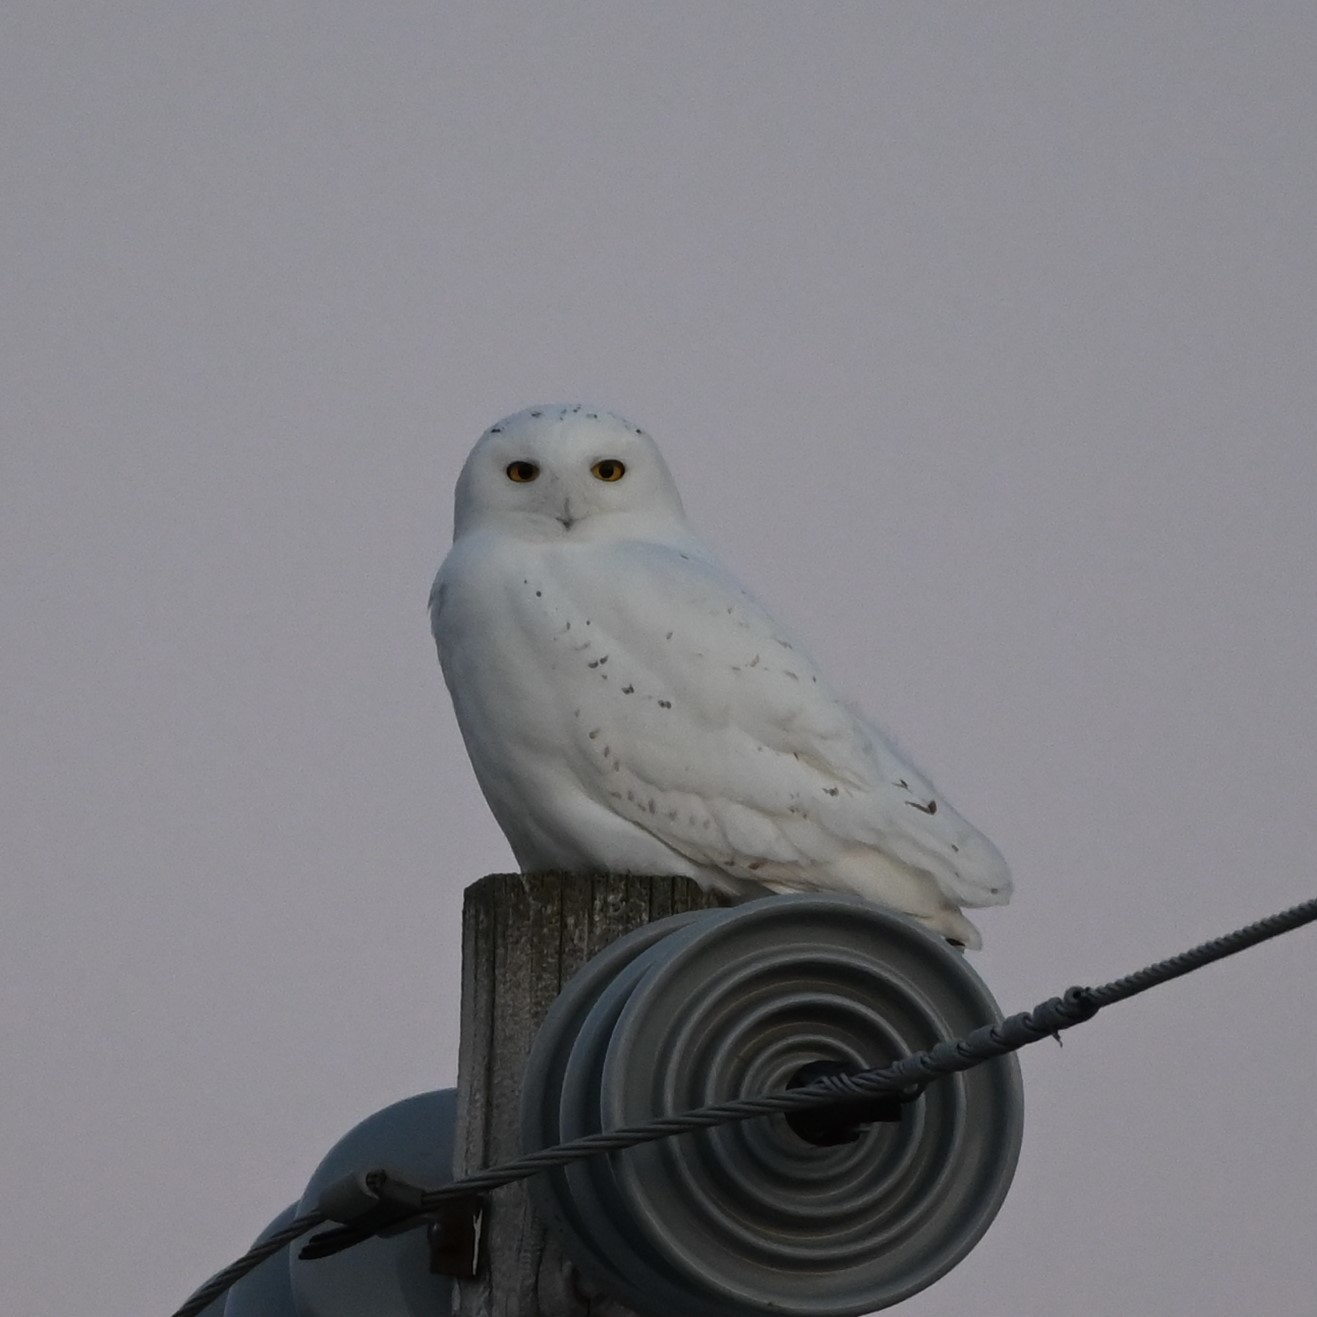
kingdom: Animalia
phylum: Chordata
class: Aves
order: Strigiformes
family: Strigidae
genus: Bubo
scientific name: Bubo scandiacus
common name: Snowy owl
